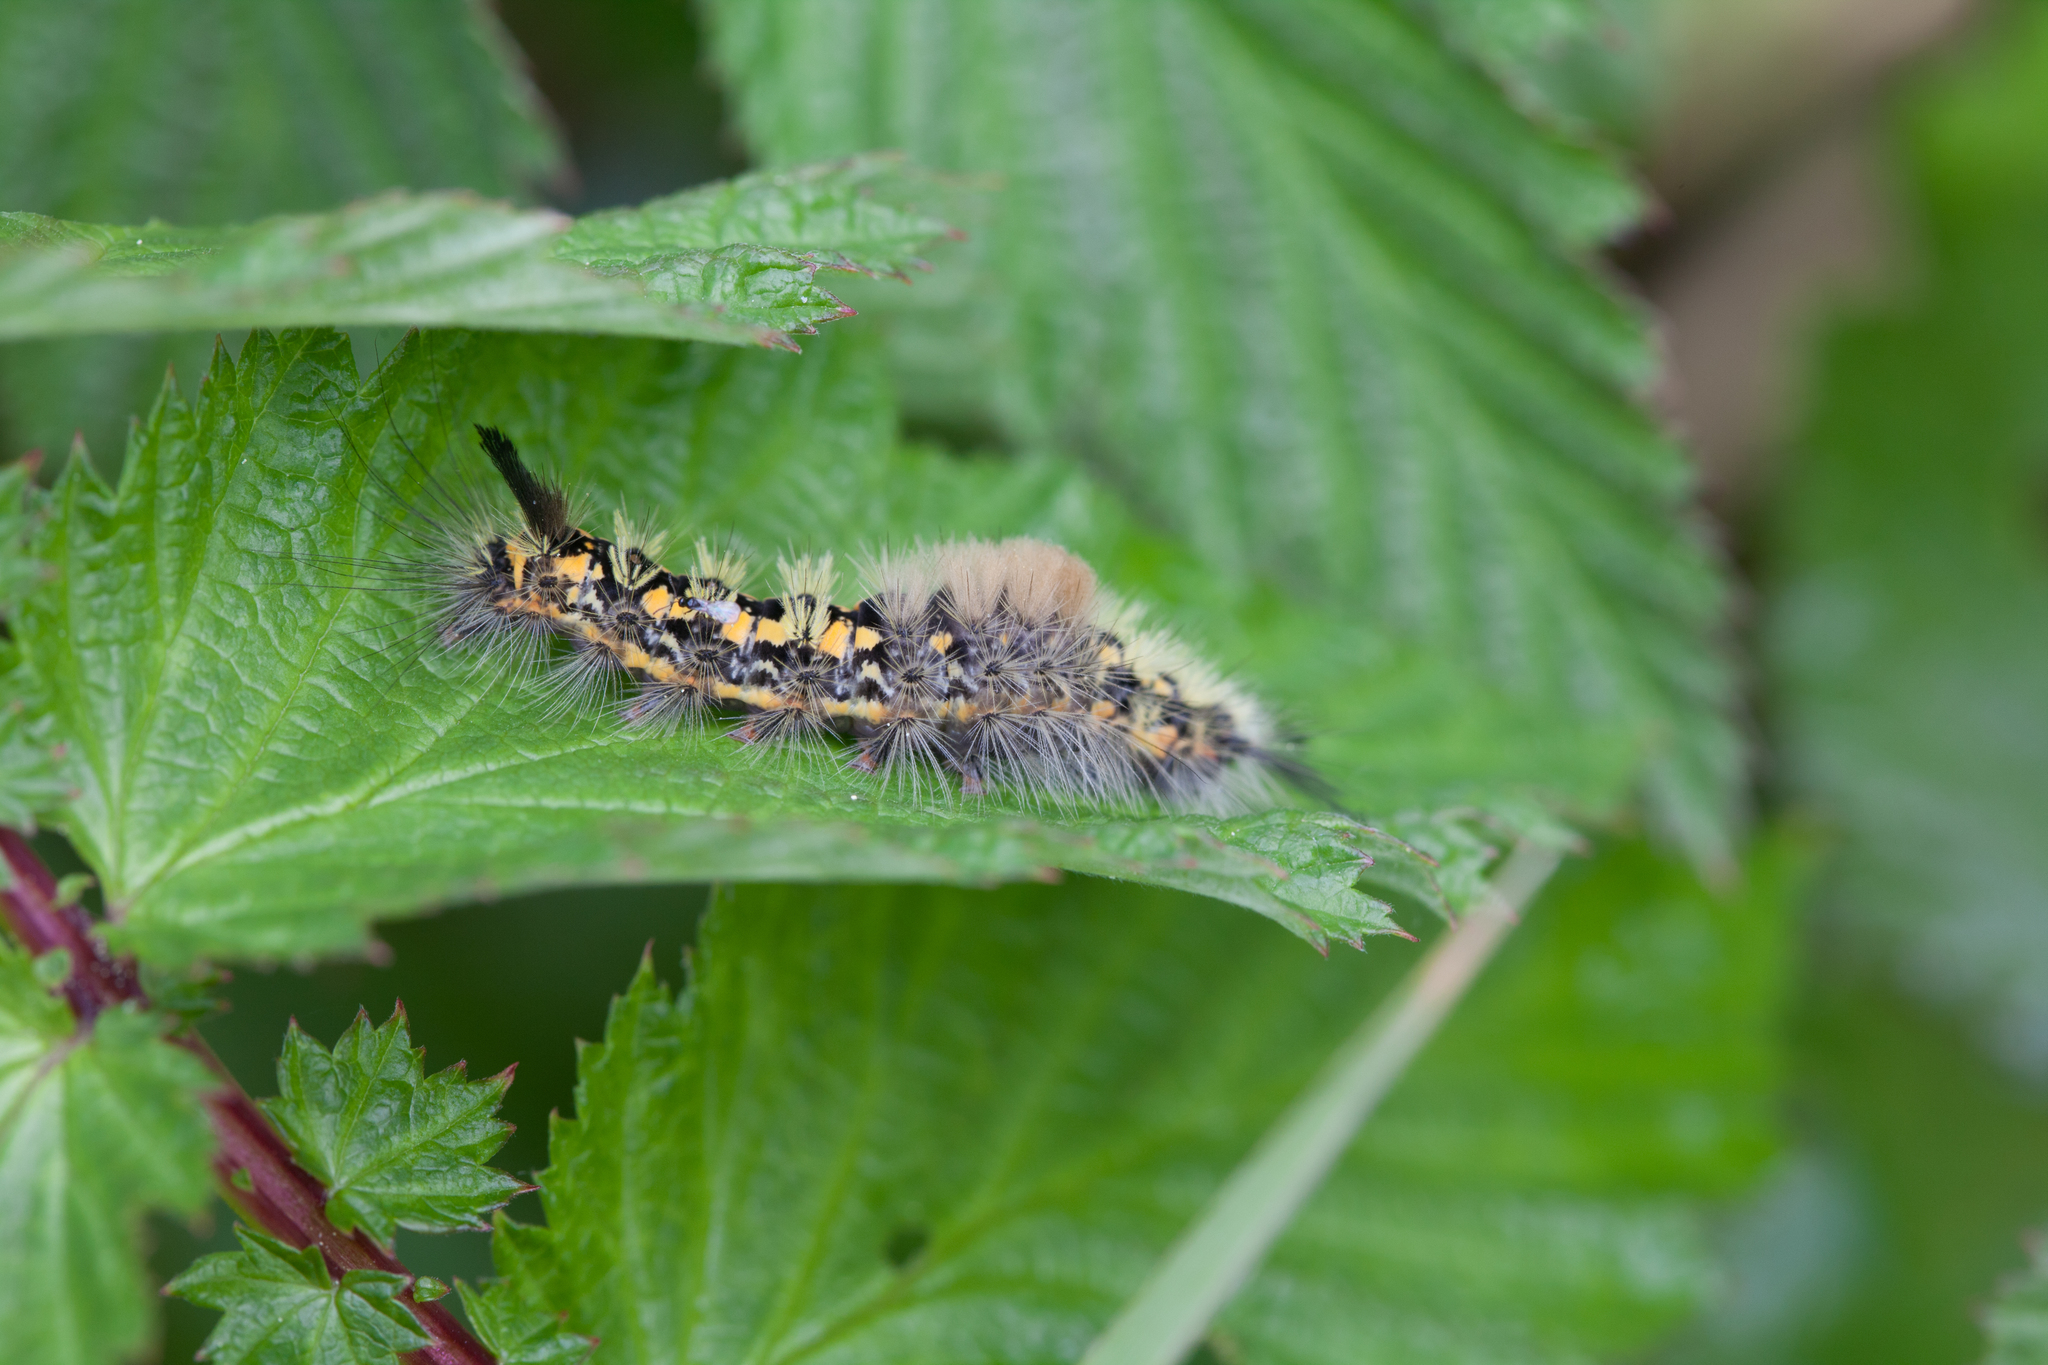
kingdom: Animalia
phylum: Arthropoda
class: Insecta
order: Lepidoptera
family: Erebidae
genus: Orgyia
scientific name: Orgyia recens
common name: Scarce vapourer
